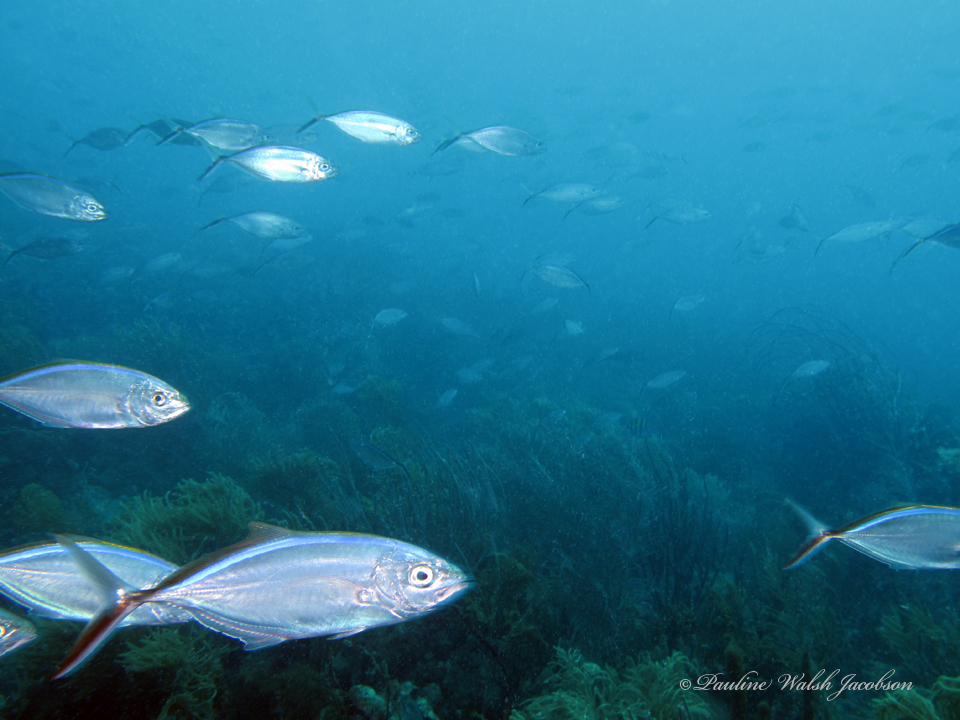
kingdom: Animalia
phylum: Chordata
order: Perciformes
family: Carangidae
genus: Caranx
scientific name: Caranx ruber
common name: Bar jack
